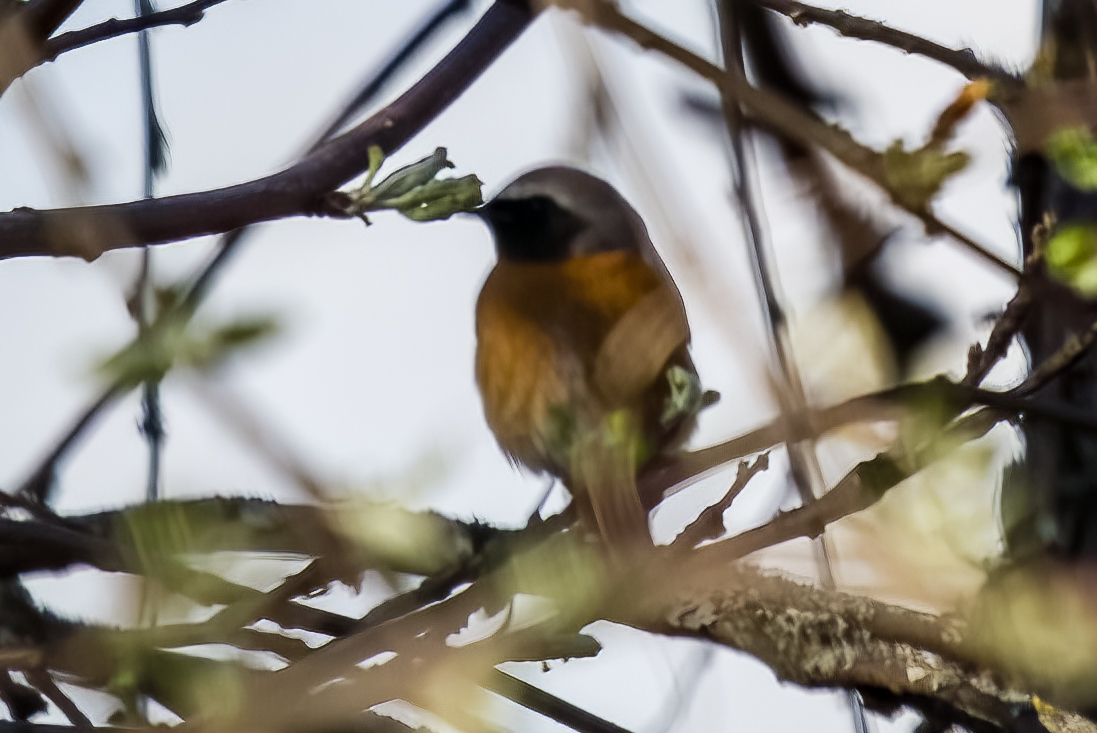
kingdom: Animalia
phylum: Chordata
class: Aves
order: Passeriformes
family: Muscicapidae
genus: Phoenicurus
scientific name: Phoenicurus phoenicurus
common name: Common redstart
